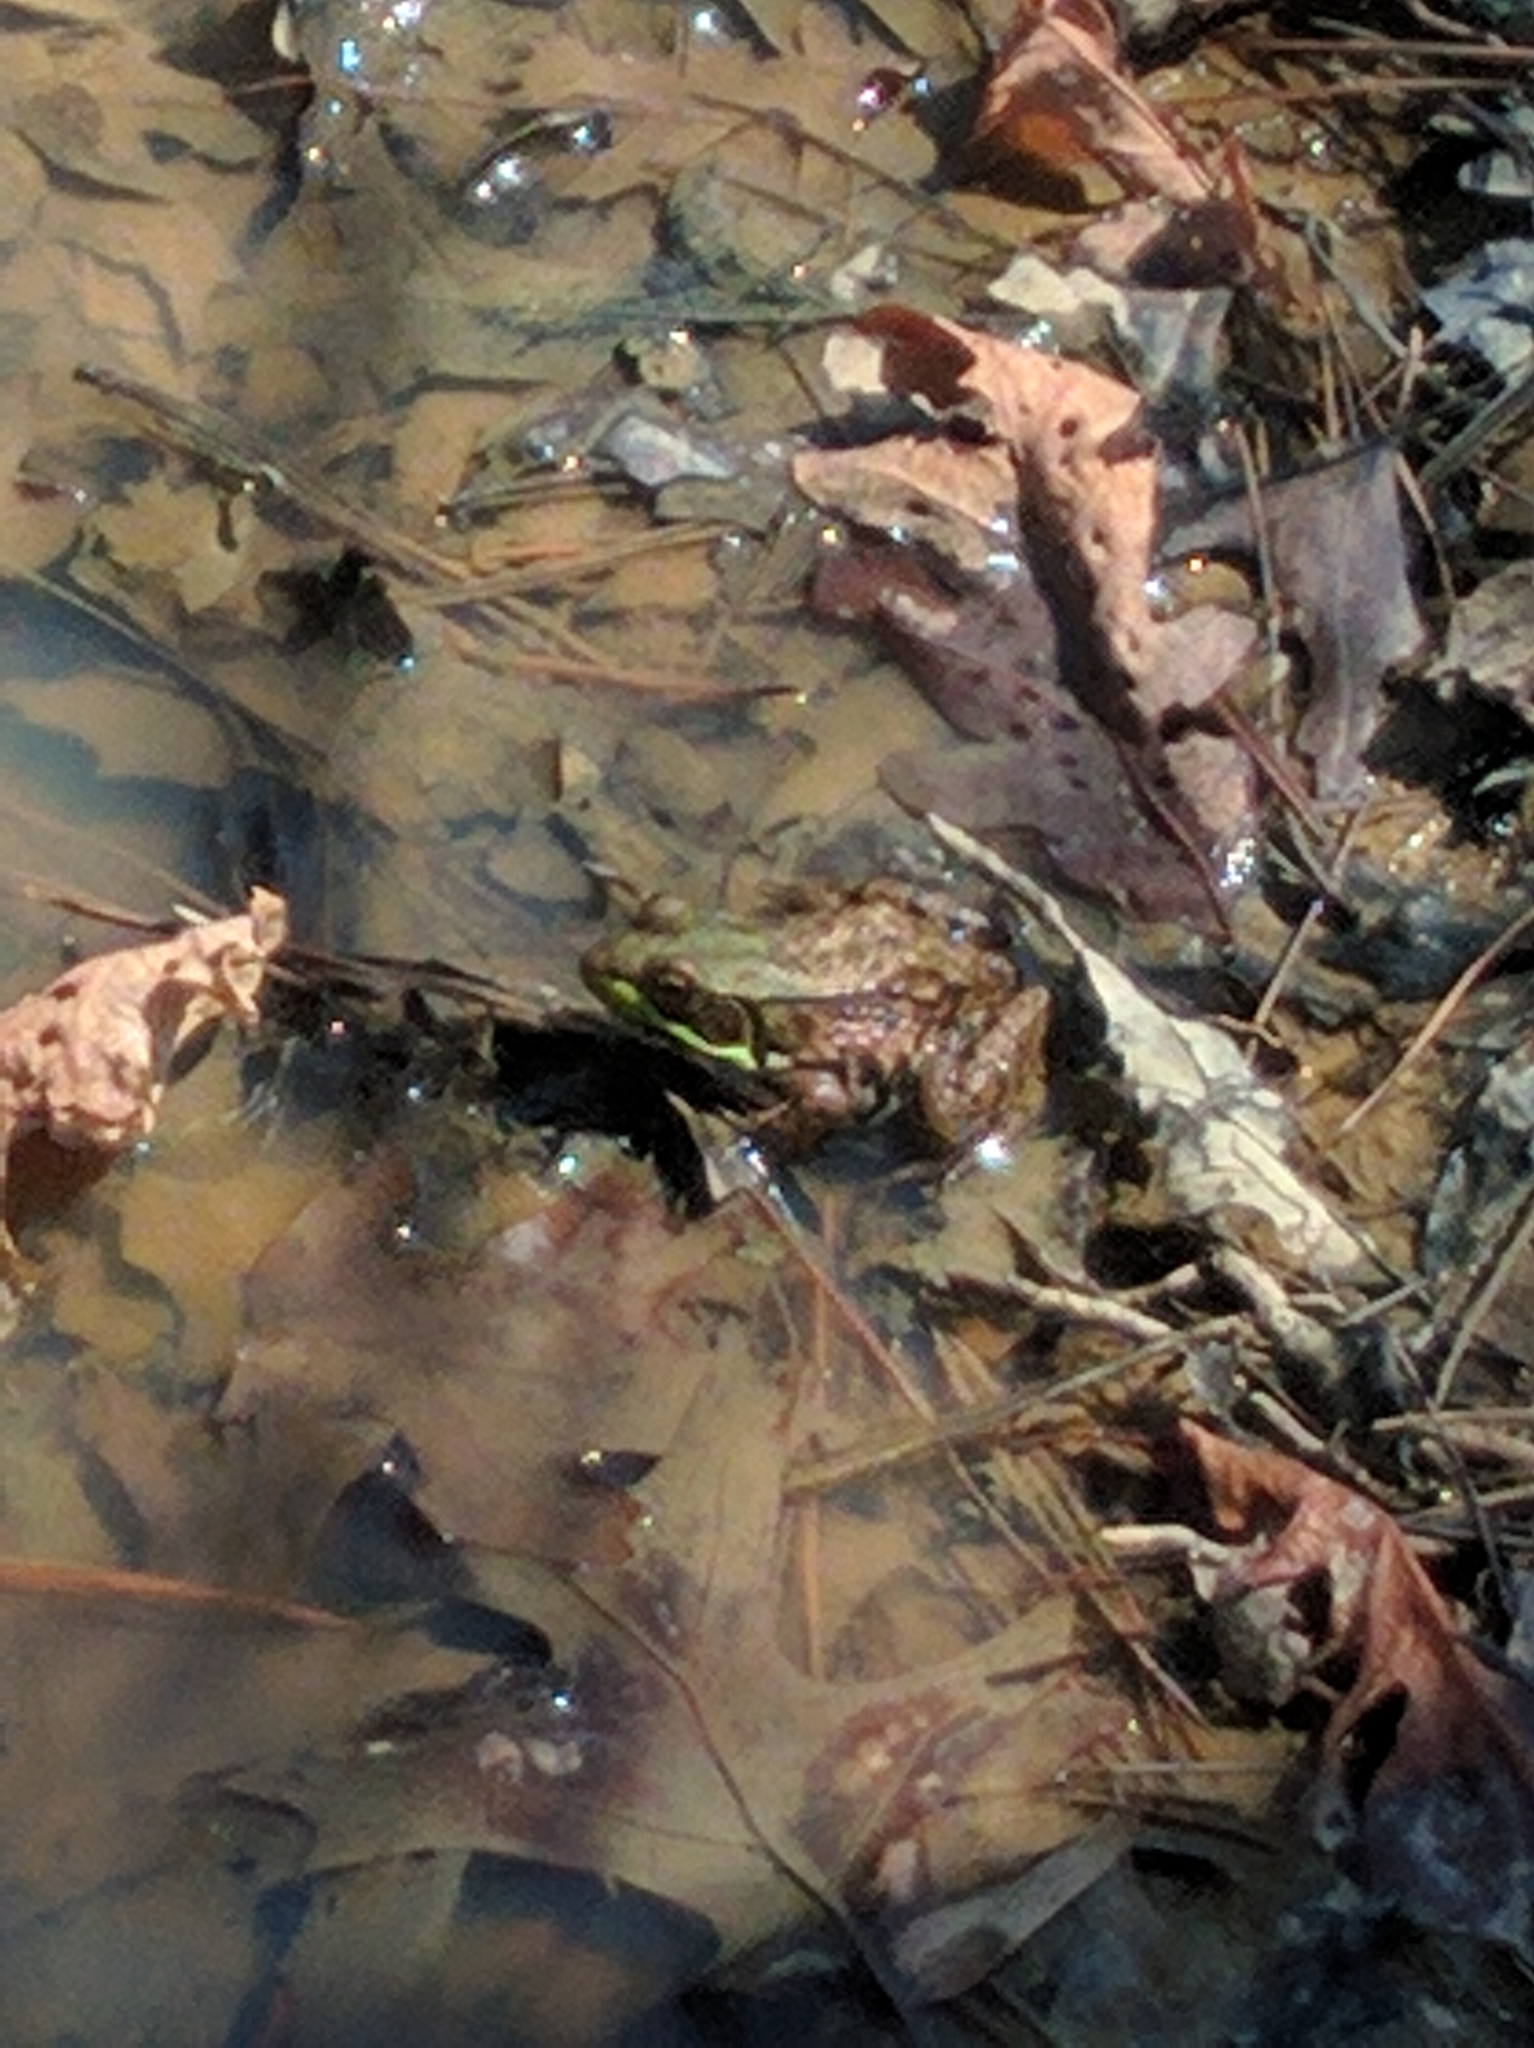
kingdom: Animalia
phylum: Chordata
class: Amphibia
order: Anura
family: Ranidae
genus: Lithobates
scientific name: Lithobates clamitans
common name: Green frog
